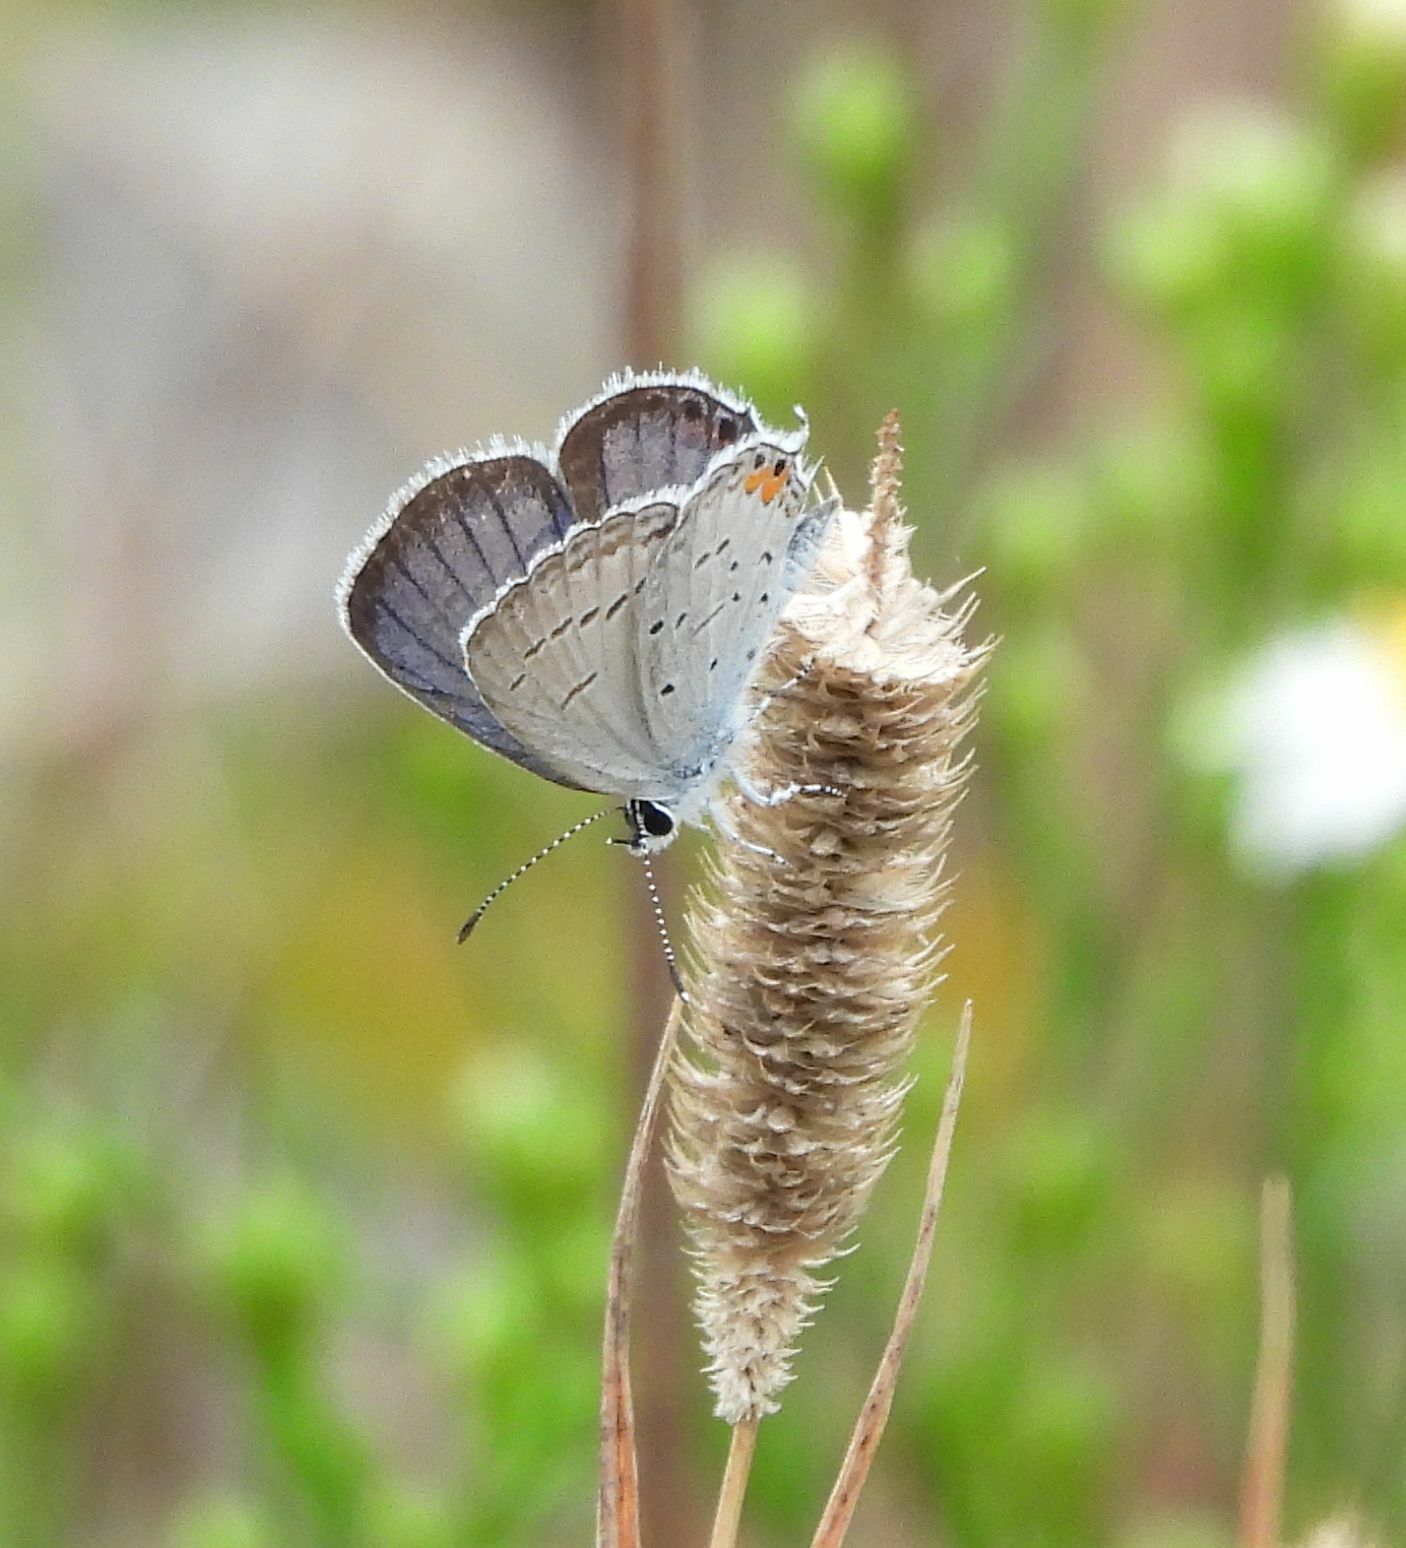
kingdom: Animalia
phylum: Arthropoda
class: Insecta
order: Lepidoptera
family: Lycaenidae
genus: Elkalyce
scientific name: Elkalyce comyntas
